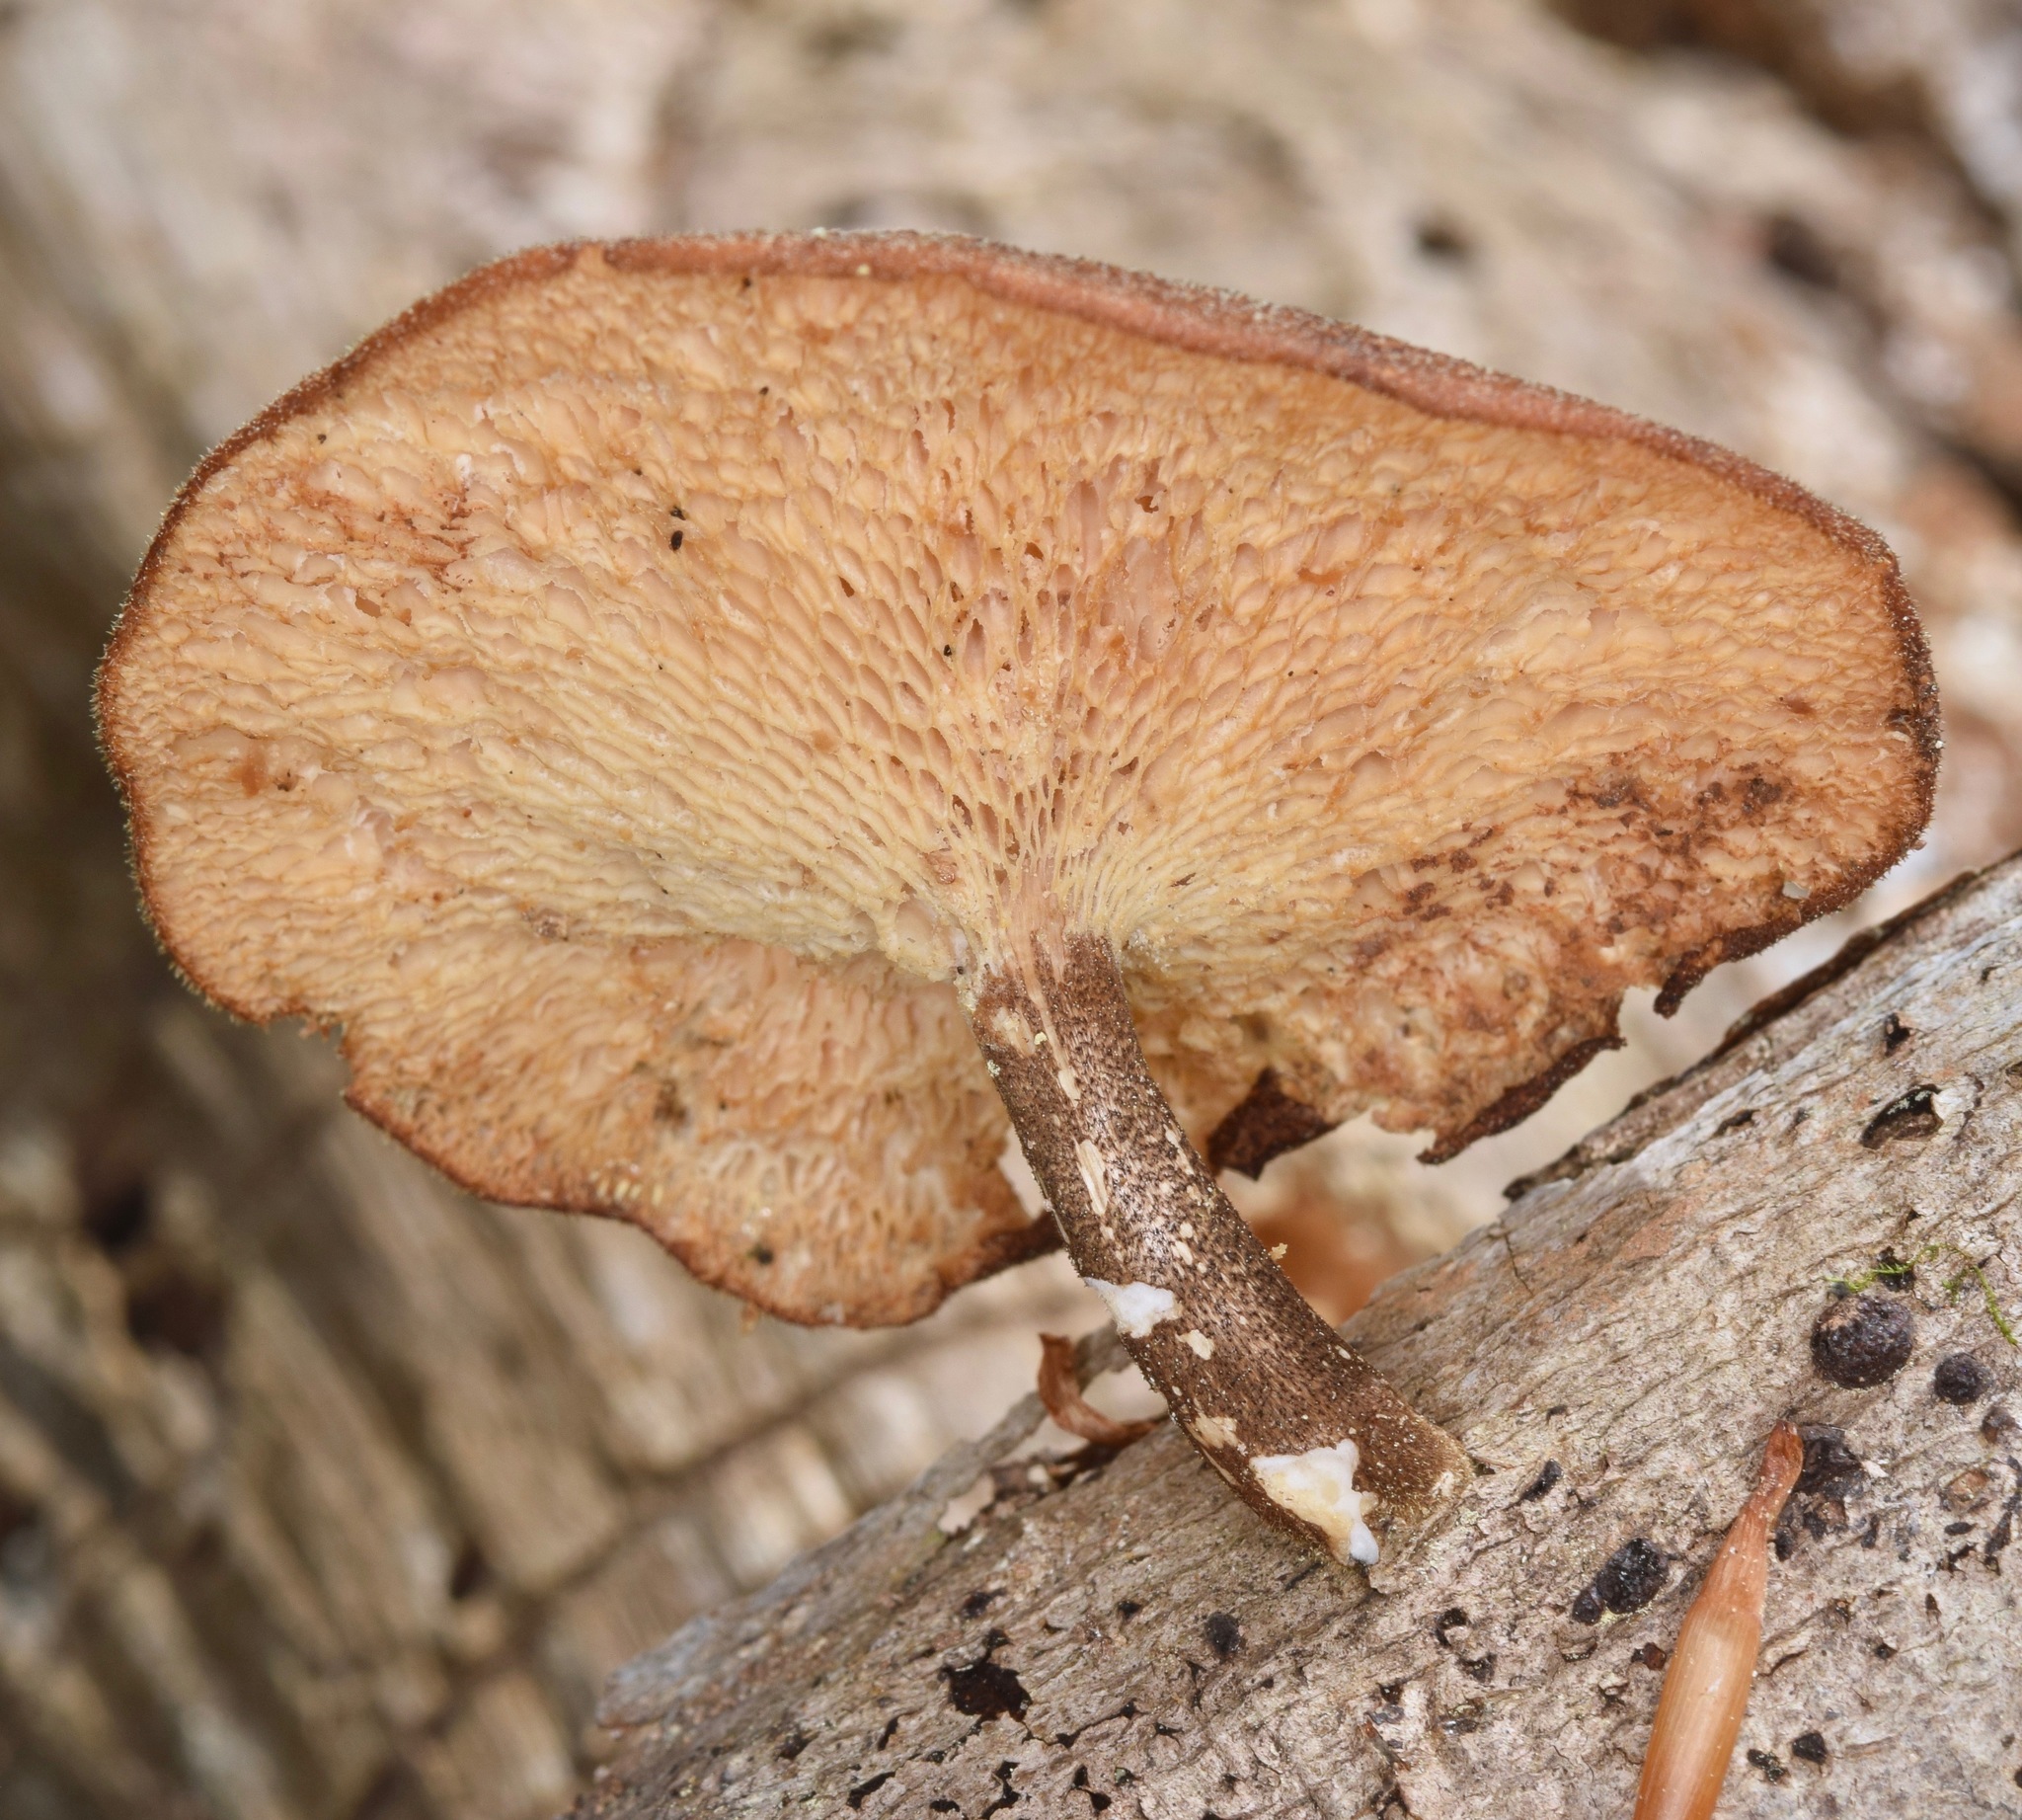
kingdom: Fungi
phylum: Basidiomycota
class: Agaricomycetes
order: Polyporales
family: Polyporaceae
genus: Lentinus
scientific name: Lentinus arcularius
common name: Spring polypore
